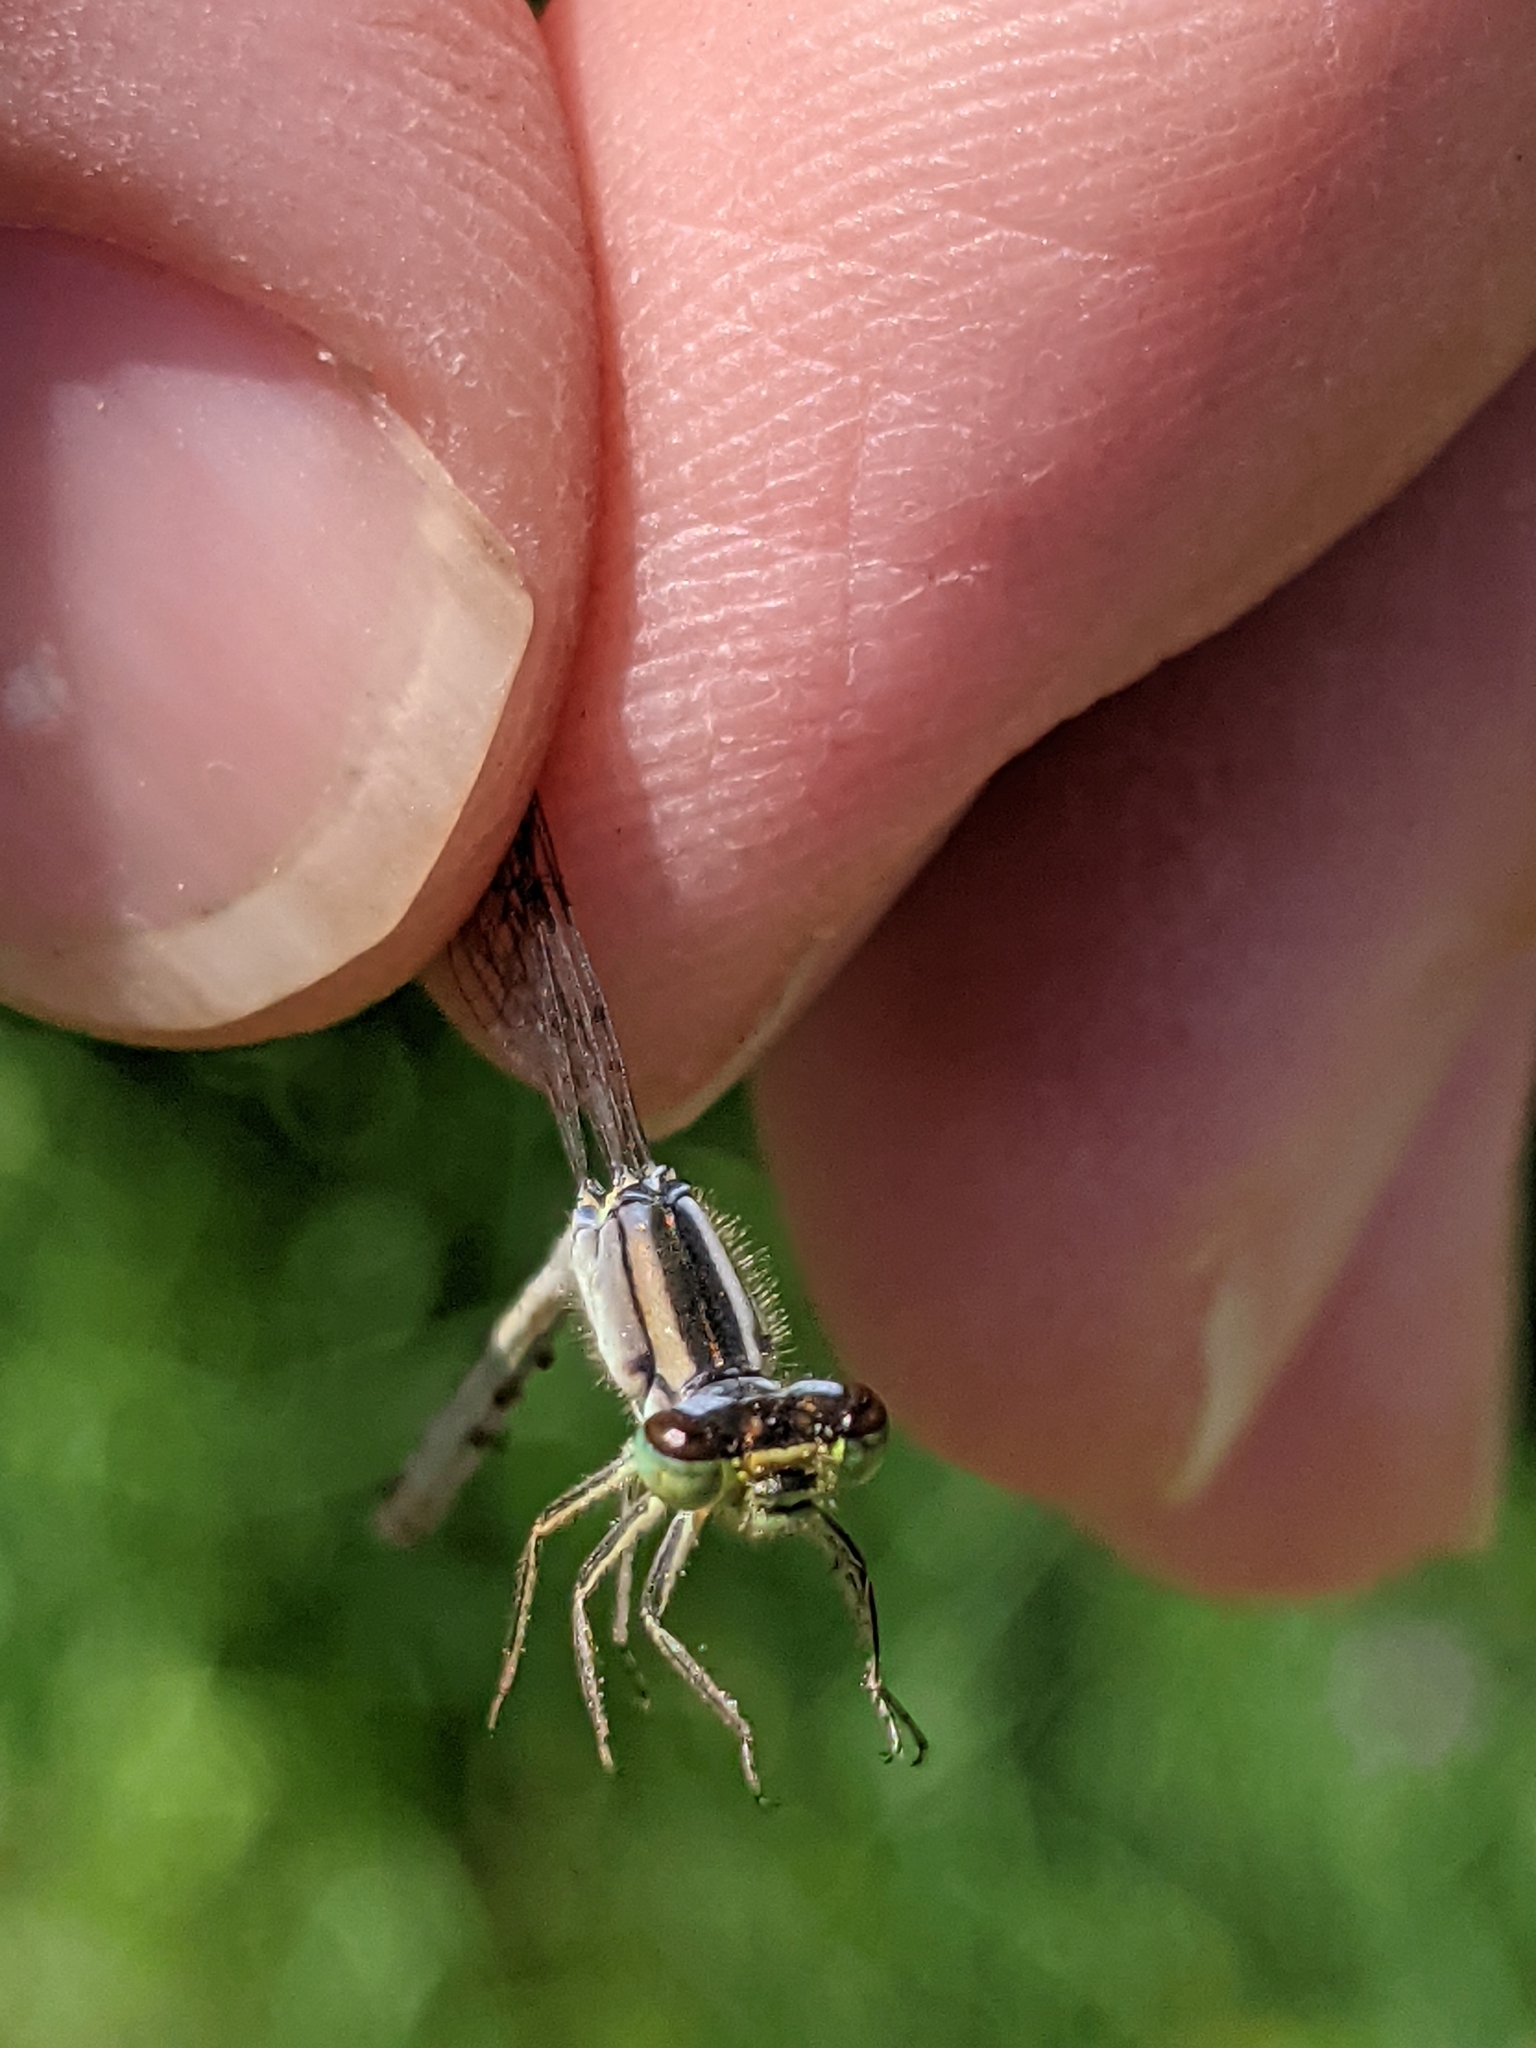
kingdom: Animalia
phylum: Arthropoda
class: Insecta
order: Odonata
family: Coenagrionidae
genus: Ischnura
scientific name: Ischnura verticalis
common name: Eastern forktail
